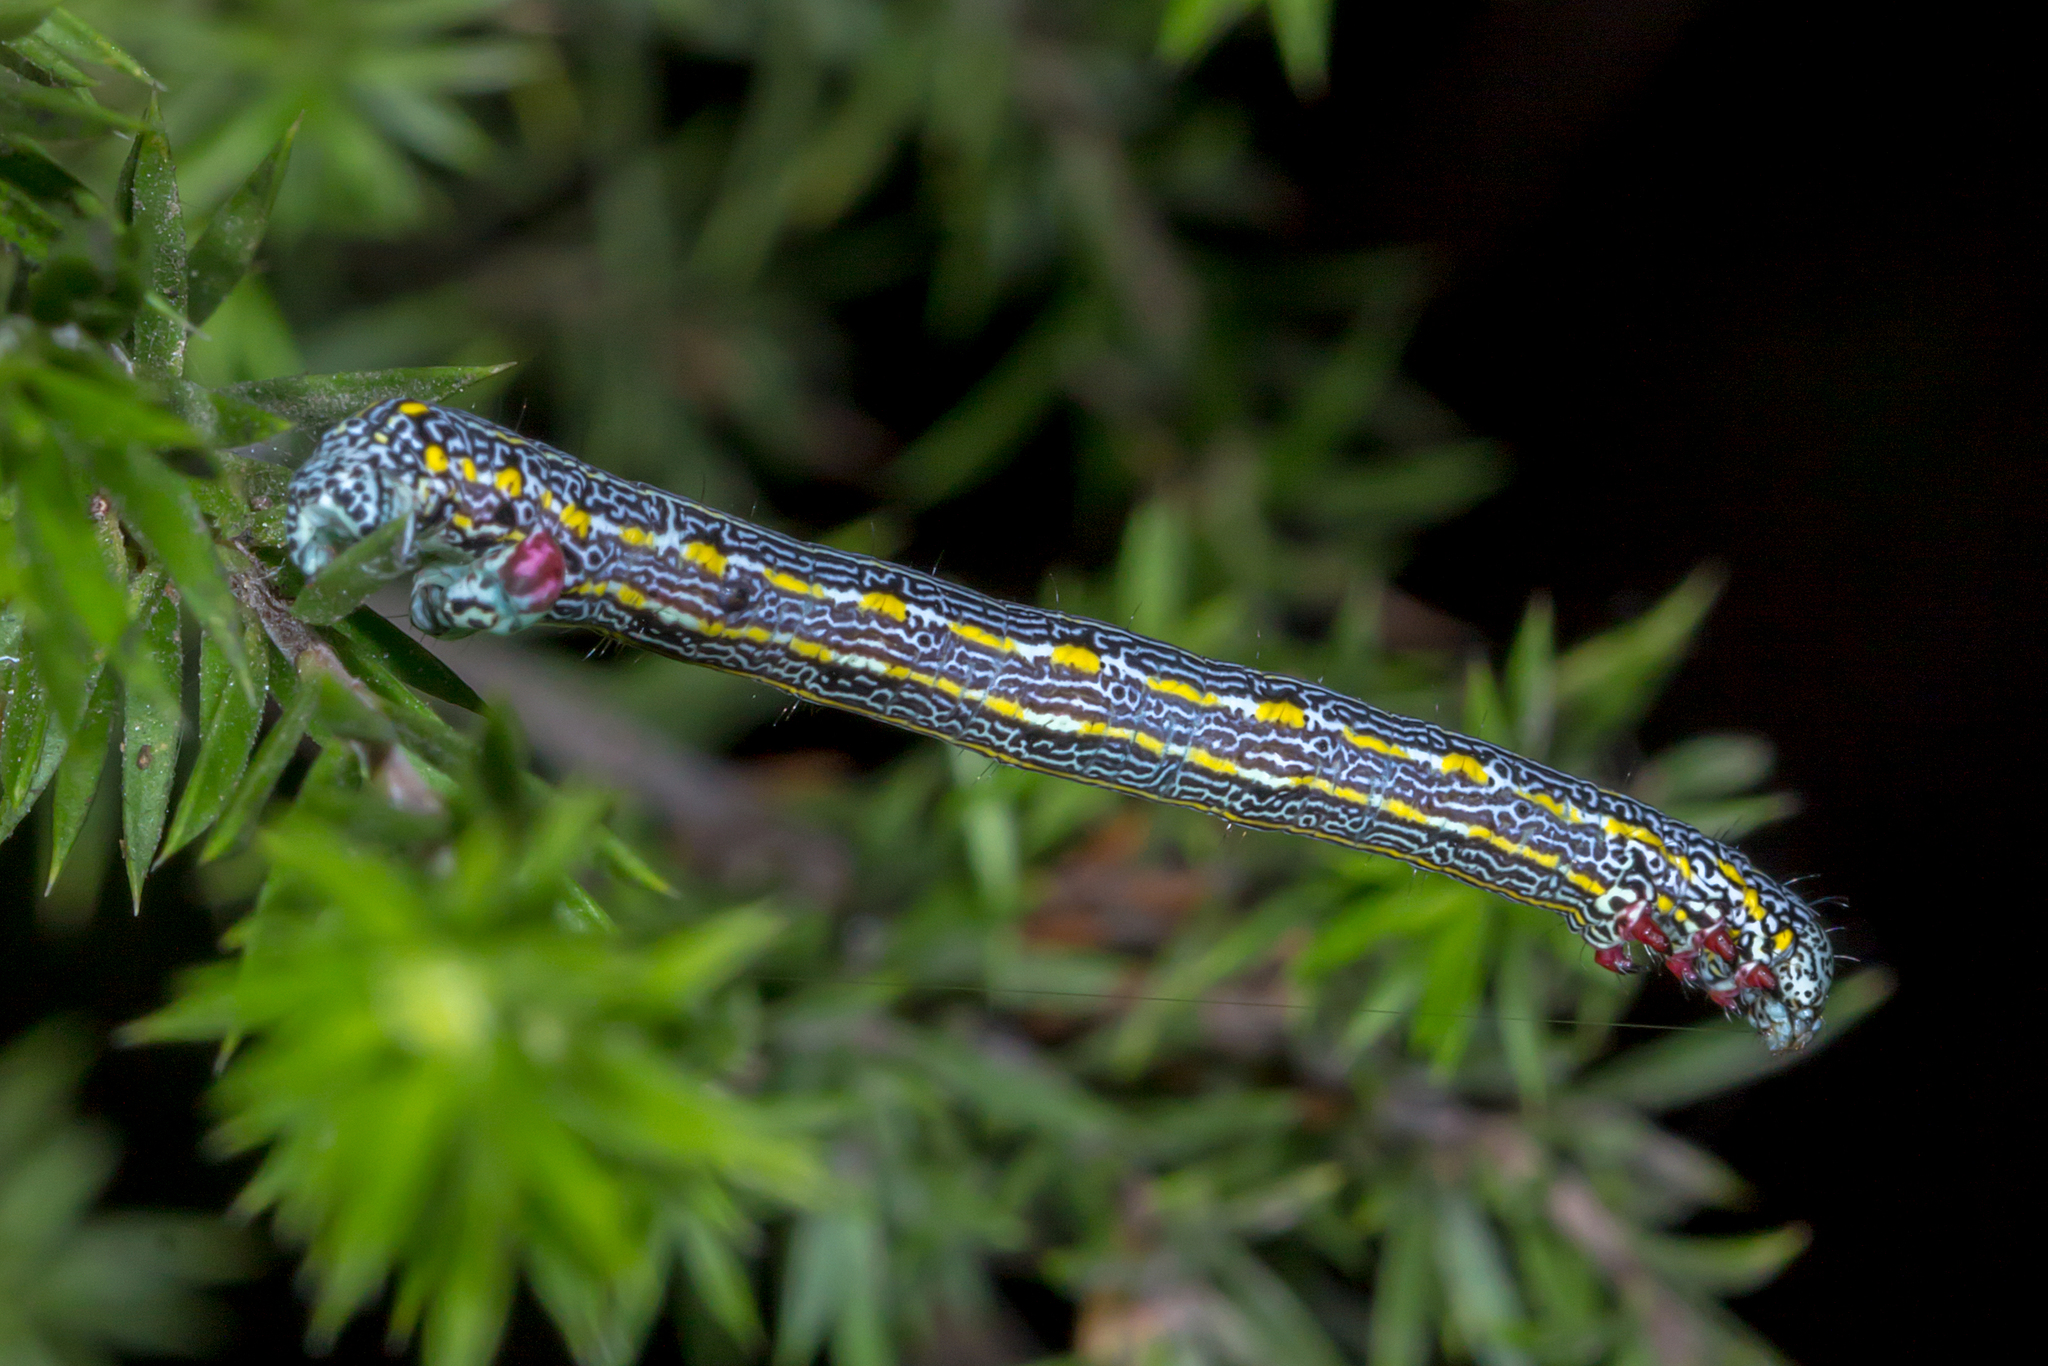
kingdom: Animalia
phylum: Arthropoda
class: Insecta
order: Lepidoptera
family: Geometridae
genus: Chlenias
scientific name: Chlenias banksiaria
